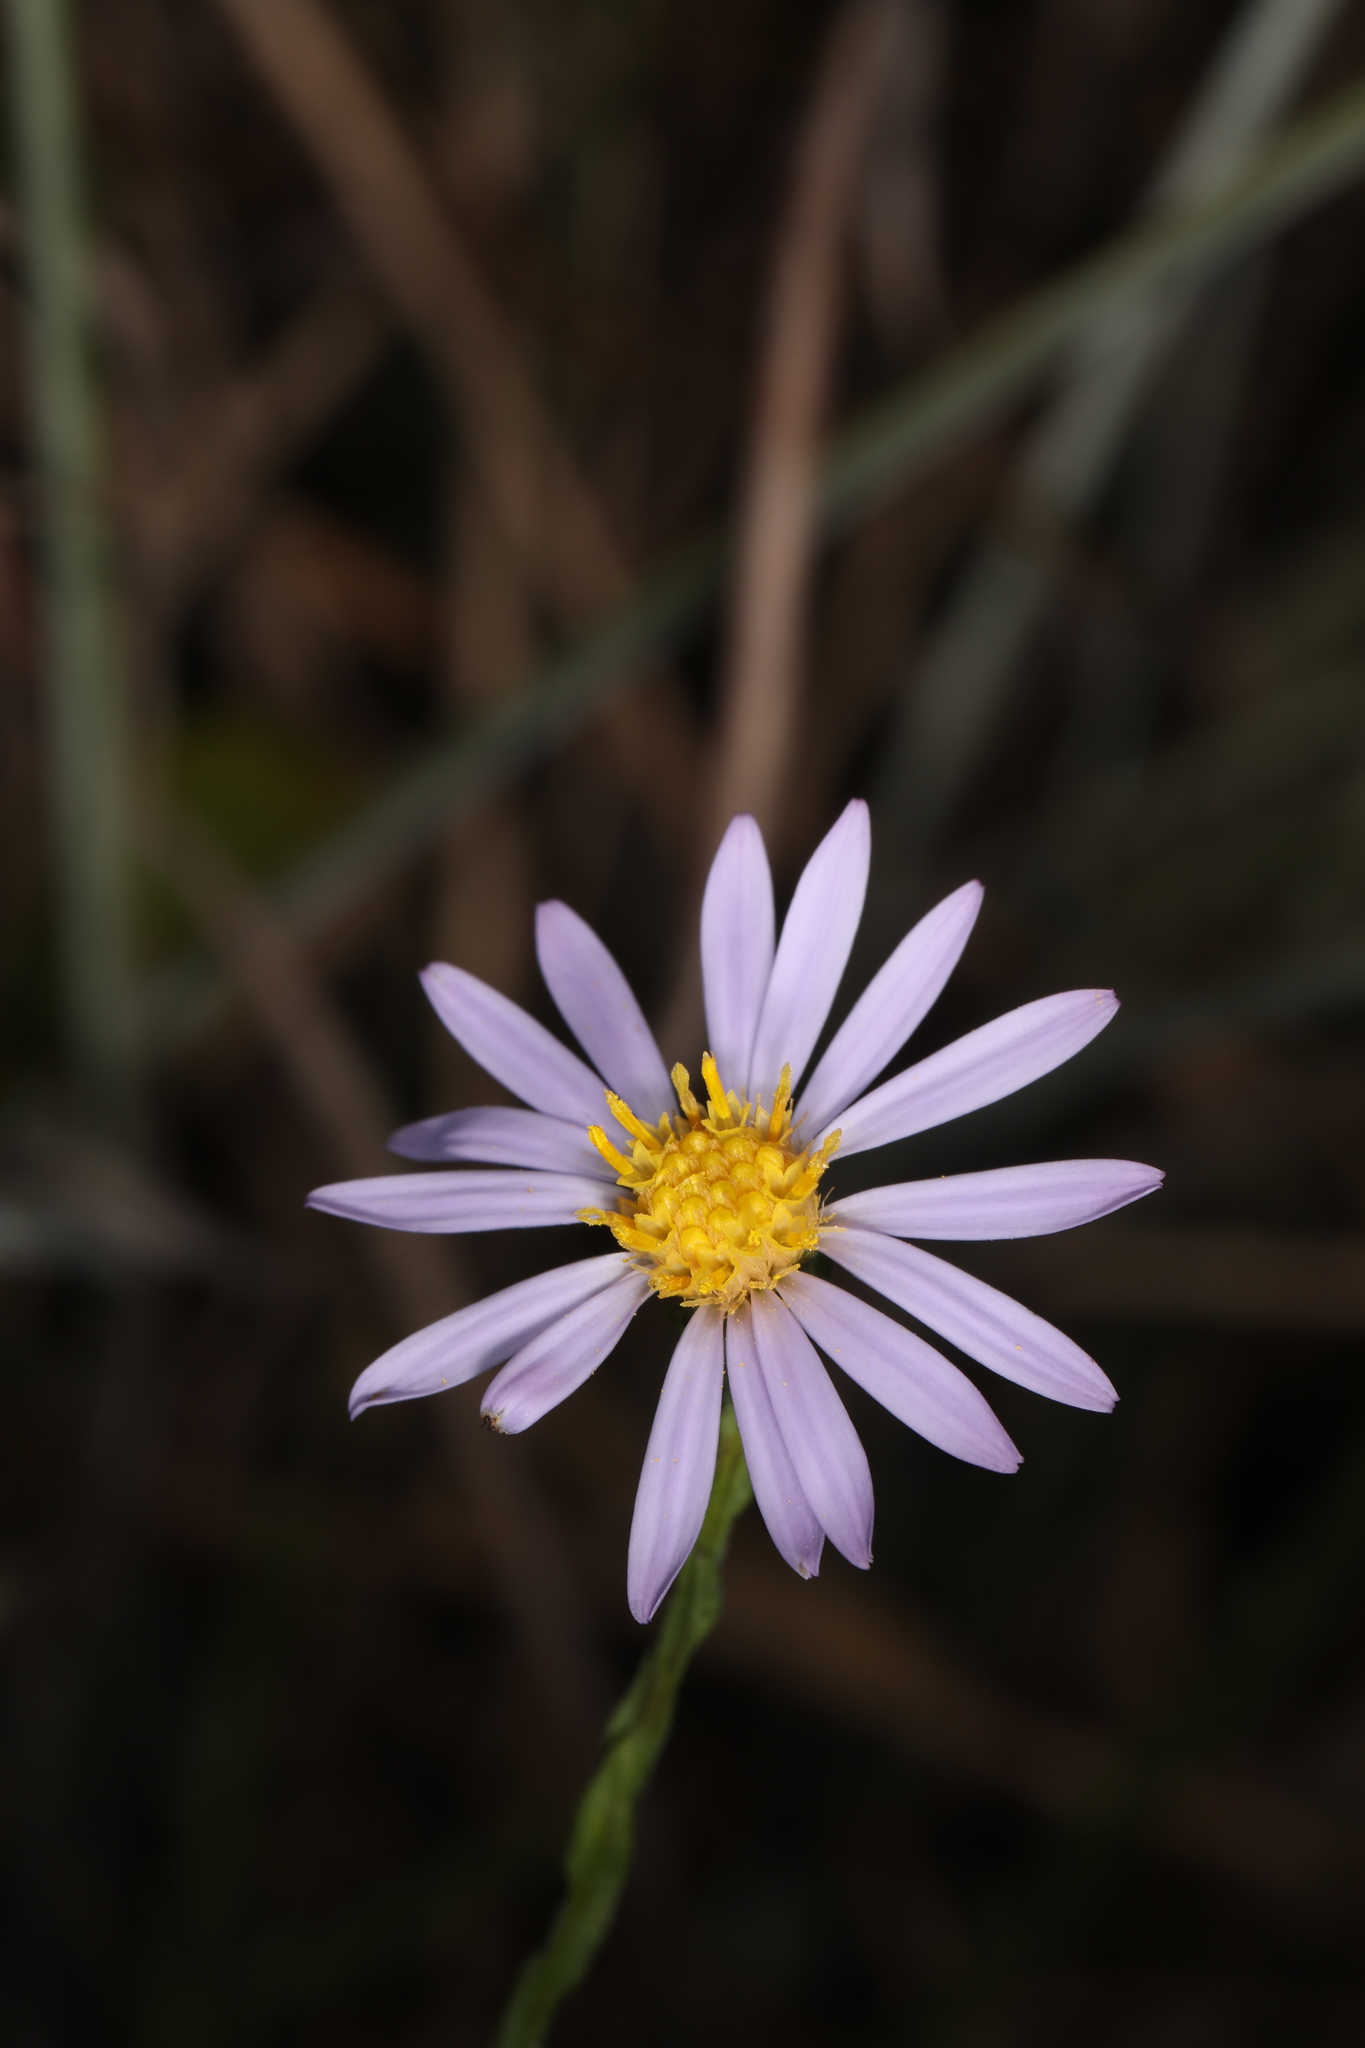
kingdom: Plantae
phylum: Tracheophyta
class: Magnoliopsida
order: Asterales
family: Asteraceae
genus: Symphyotrichum
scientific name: Symphyotrichum adnatum
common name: Scale-leaf aster
